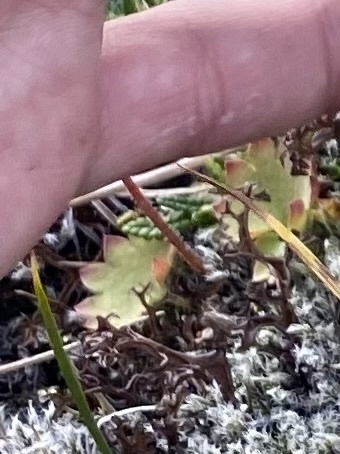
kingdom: Plantae
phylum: Tracheophyta
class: Magnoliopsida
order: Saxifragales
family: Saxifragaceae
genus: Micranthes
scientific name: Micranthes nelsoniana
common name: Nelson's saxifrage
